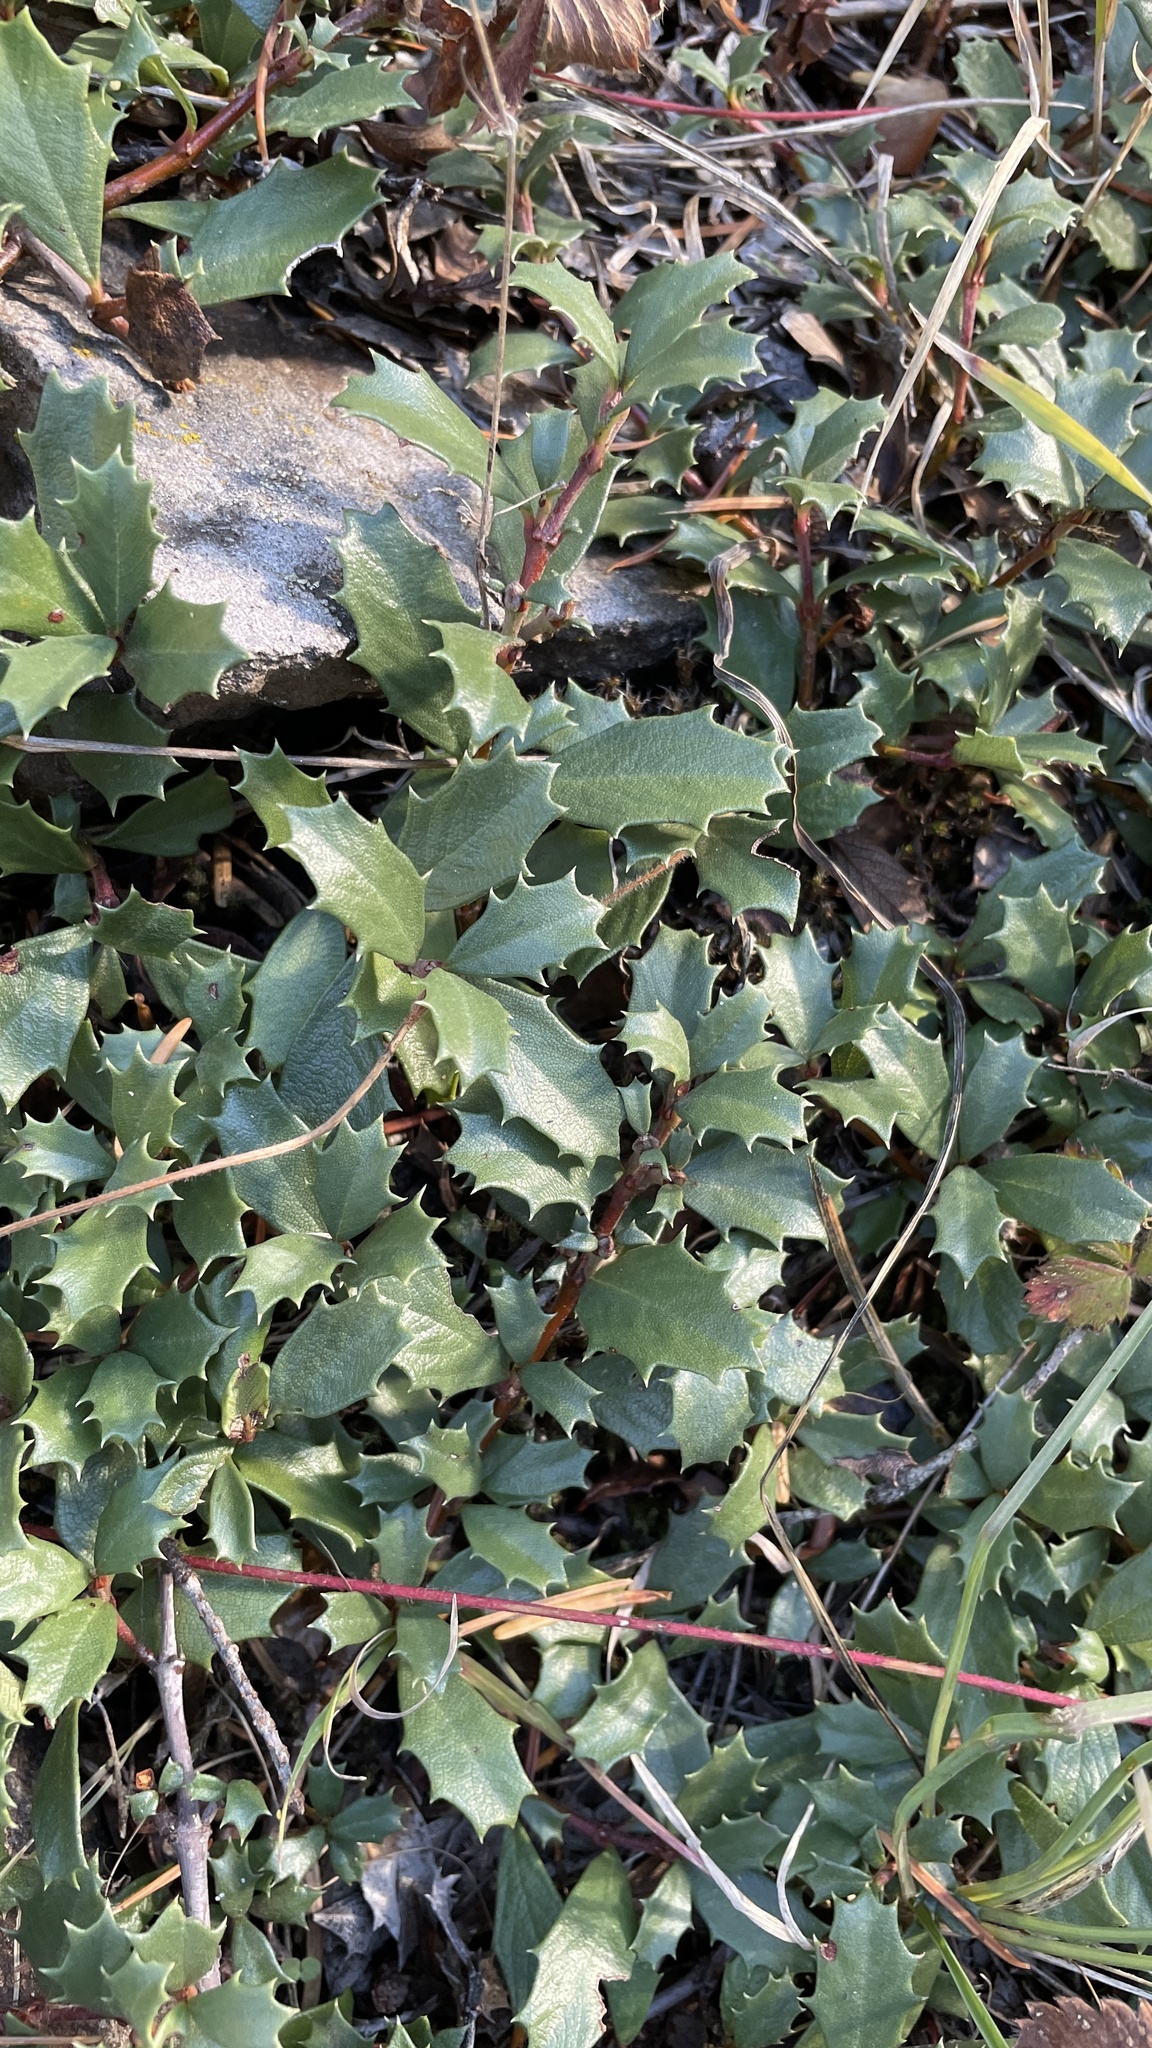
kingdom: Plantae
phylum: Tracheophyta
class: Magnoliopsida
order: Rosales
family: Rhamnaceae
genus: Ceanothus
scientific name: Ceanothus prostratus
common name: Mahala-mat
